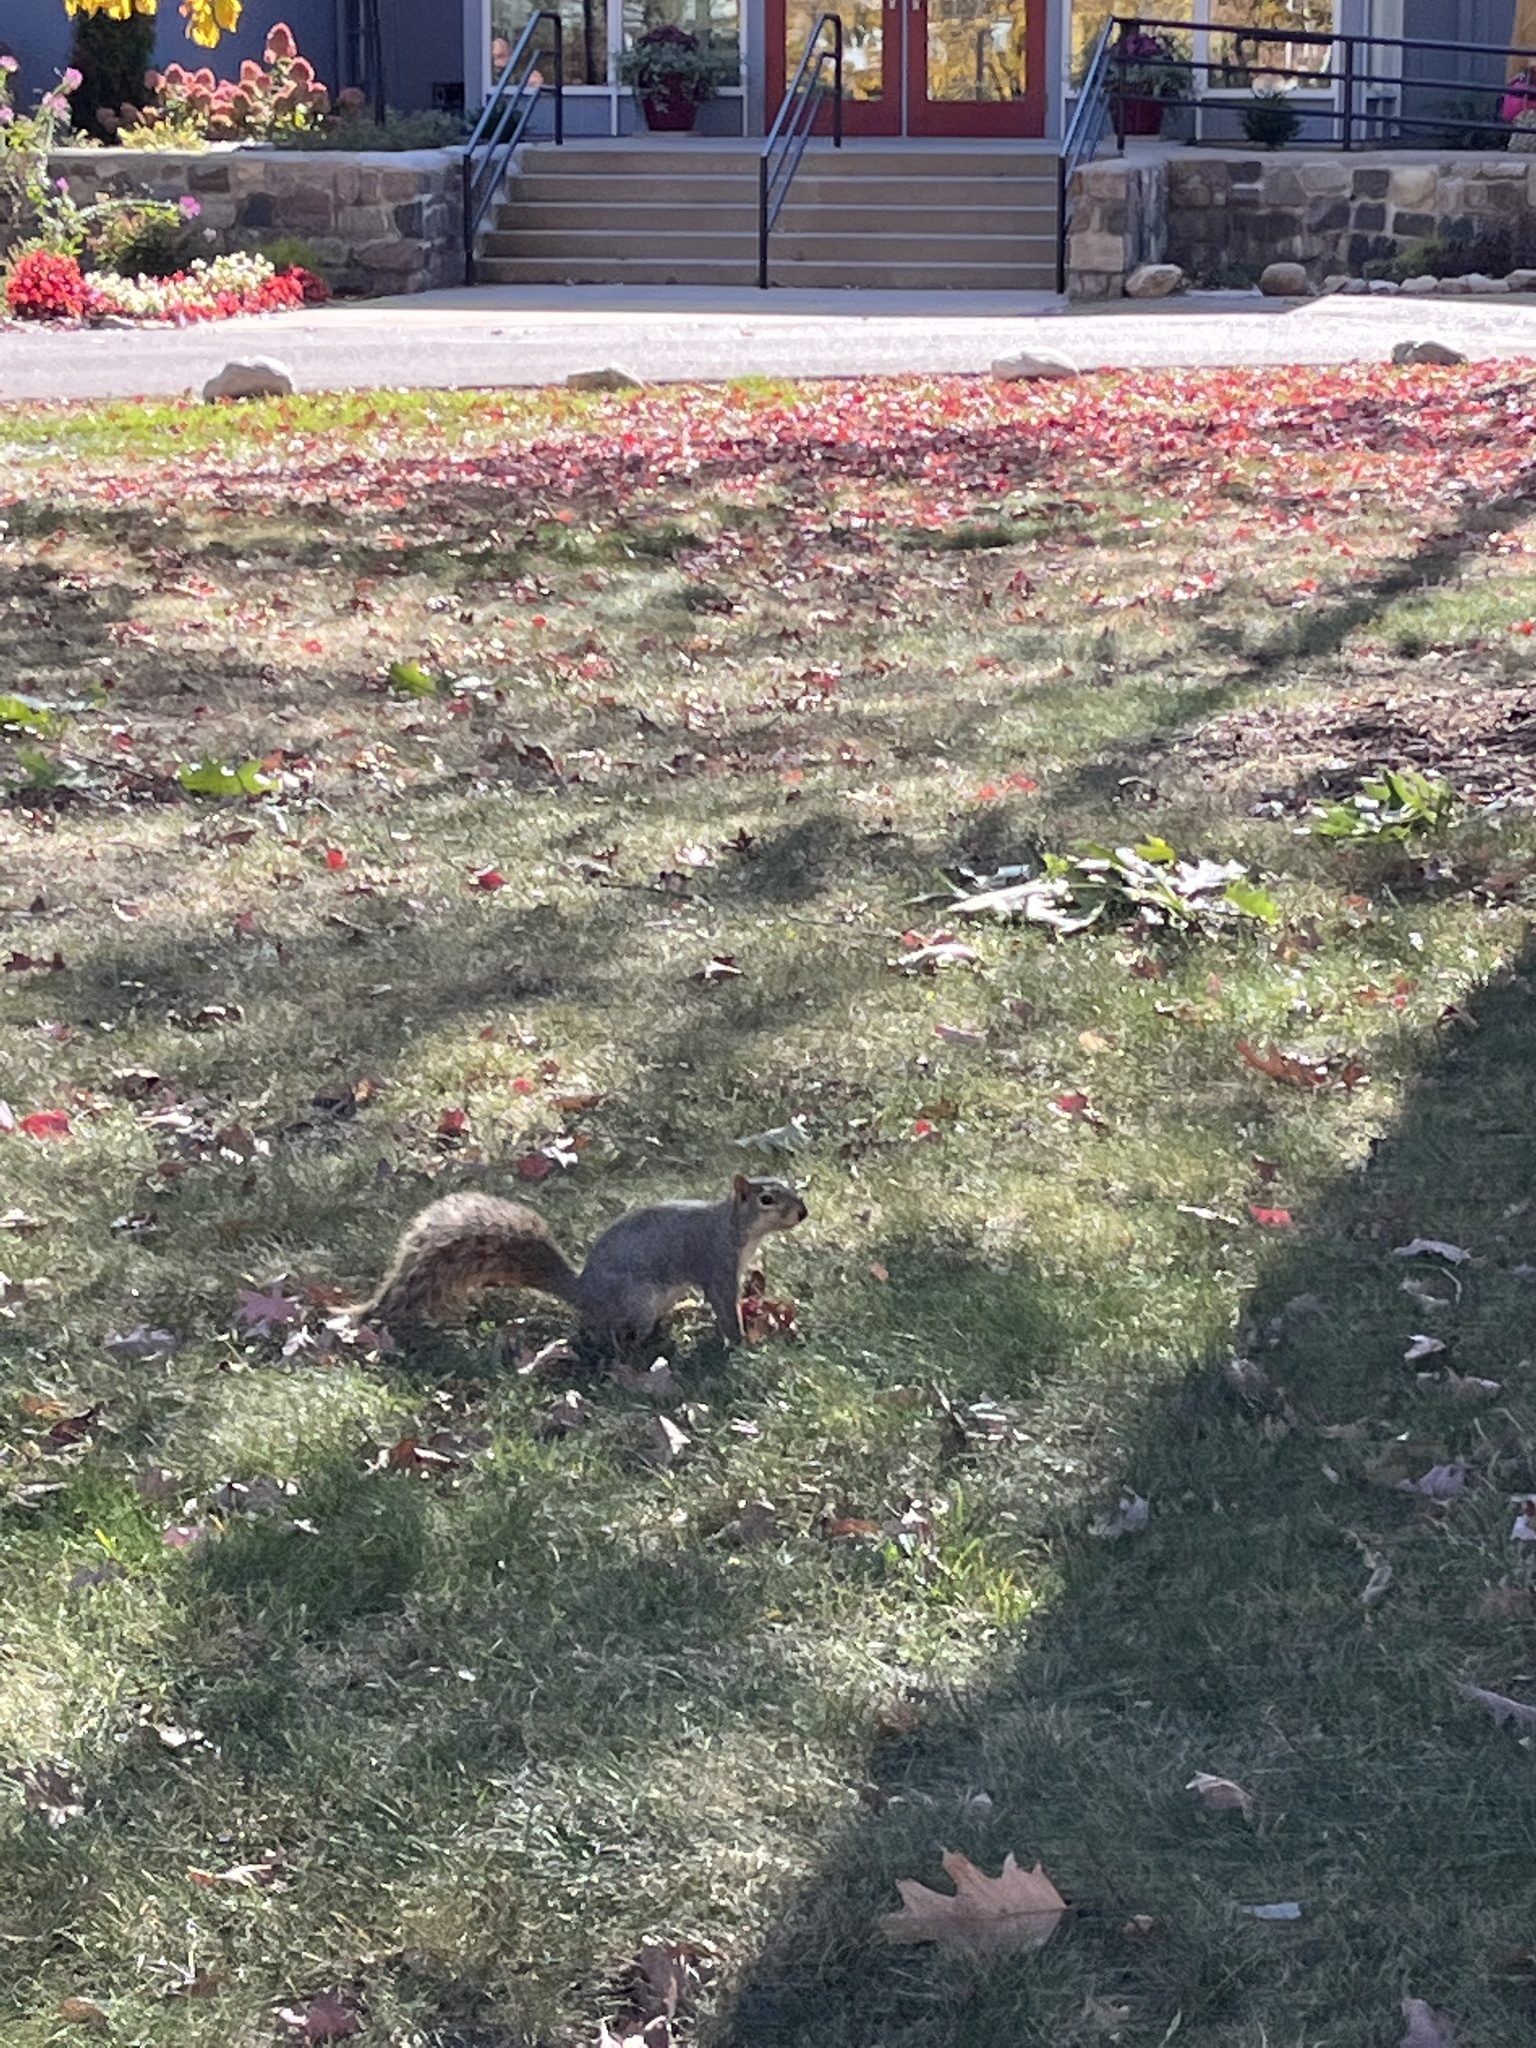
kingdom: Animalia
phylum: Chordata
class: Mammalia
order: Rodentia
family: Sciuridae
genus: Sciurus
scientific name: Sciurus niger
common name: Fox squirrel
